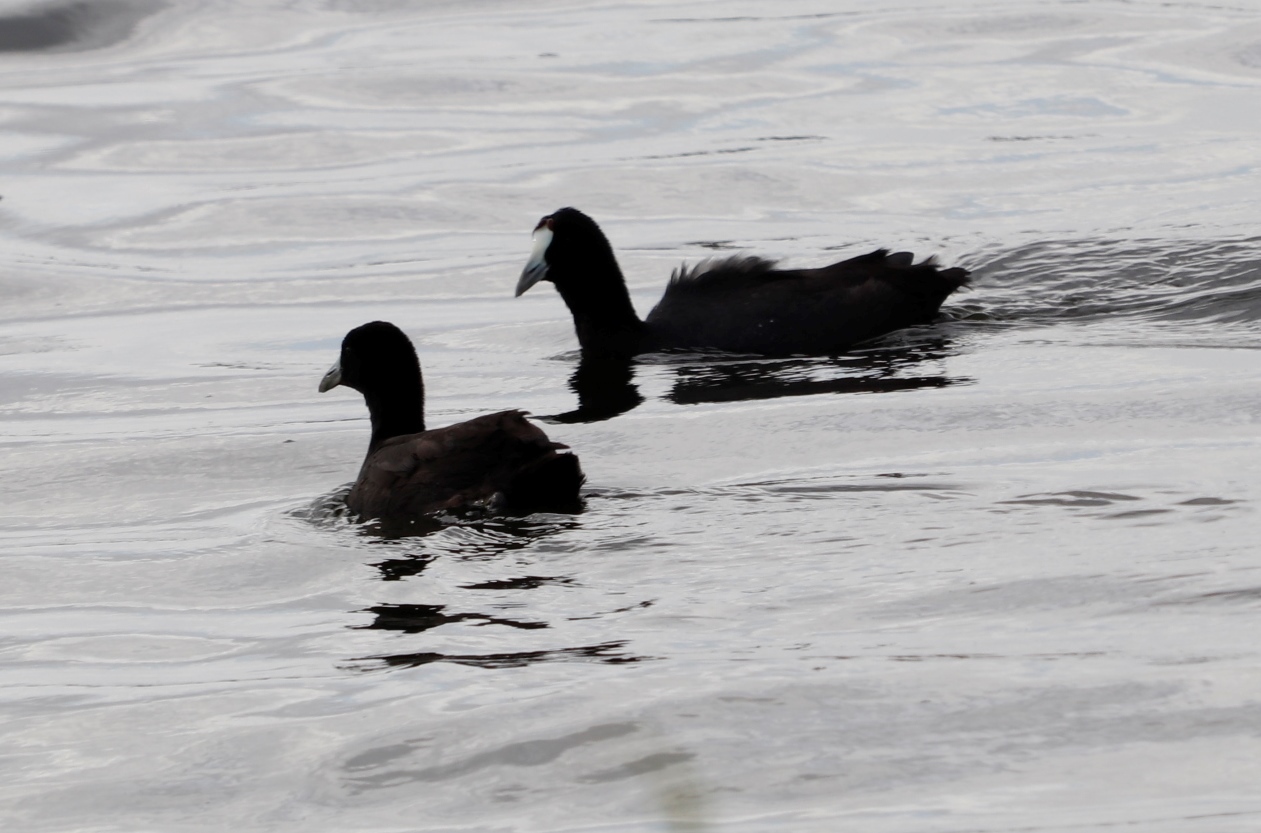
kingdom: Animalia
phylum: Chordata
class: Aves
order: Gruiformes
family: Rallidae
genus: Fulica
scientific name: Fulica cristata
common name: Red-knobbed coot
